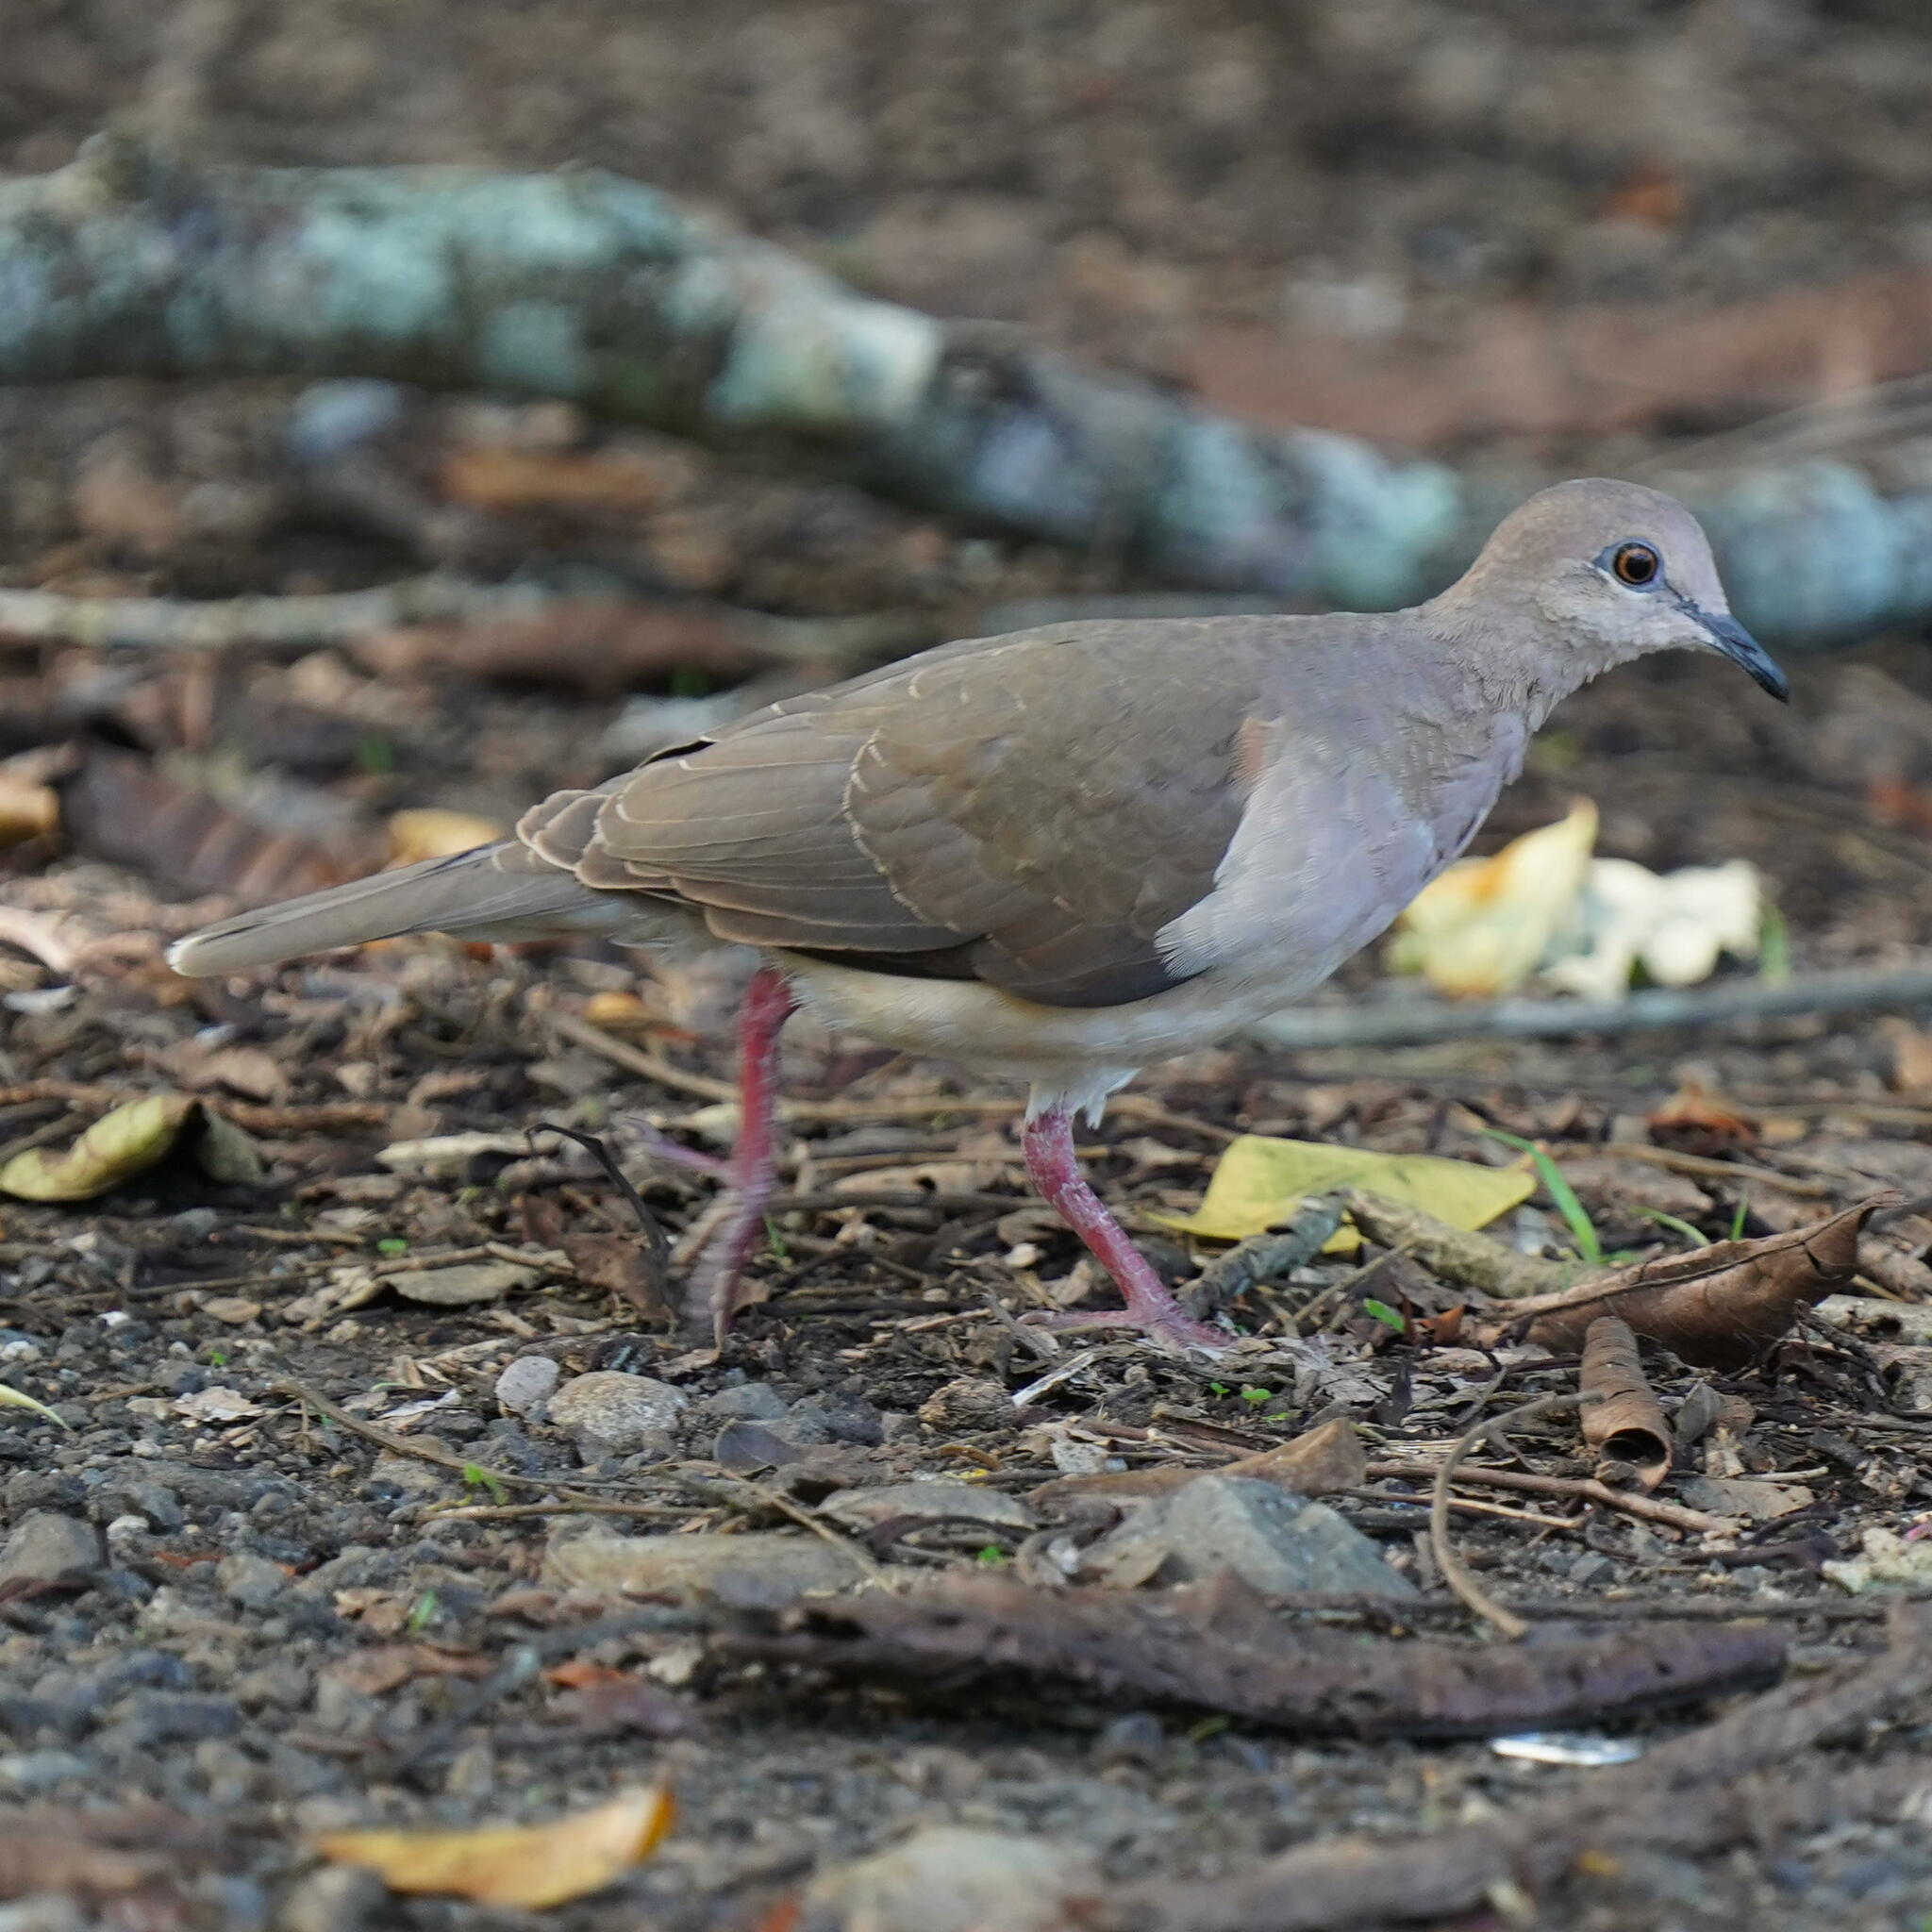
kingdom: Animalia
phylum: Chordata
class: Aves
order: Columbiformes
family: Columbidae
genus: Leptotila
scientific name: Leptotila verreauxi
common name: White-tipped dove
